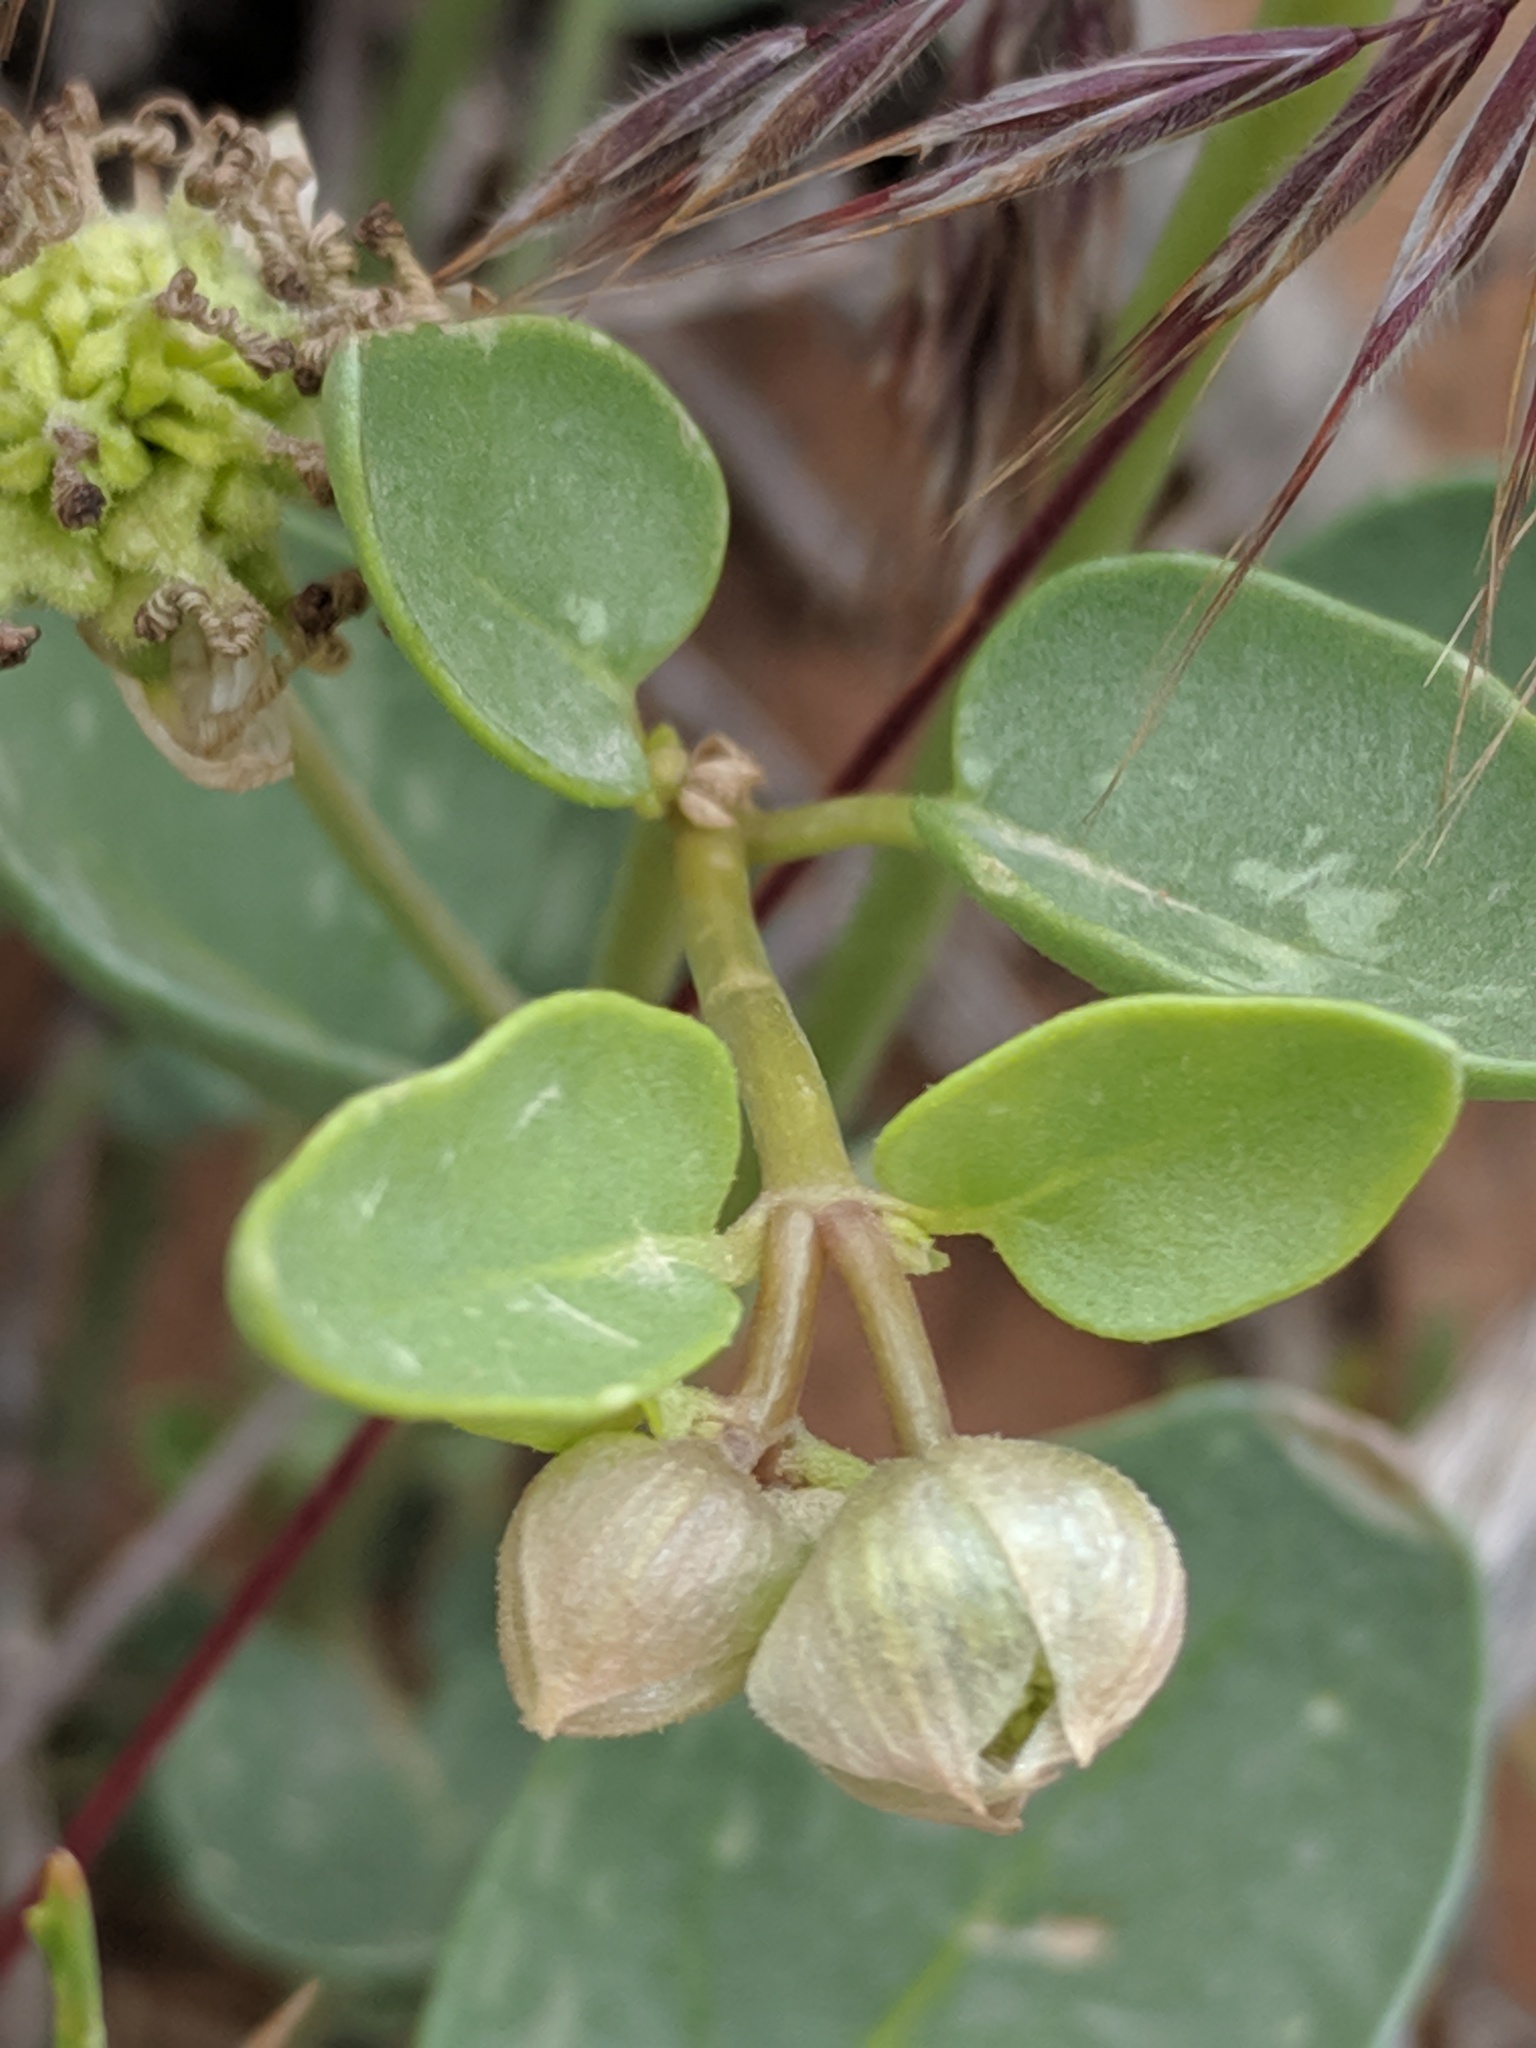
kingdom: Plantae
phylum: Tracheophyta
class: Magnoliopsida
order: Caryophyllales
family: Nyctaginaceae
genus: Abronia
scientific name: Abronia elliptica
